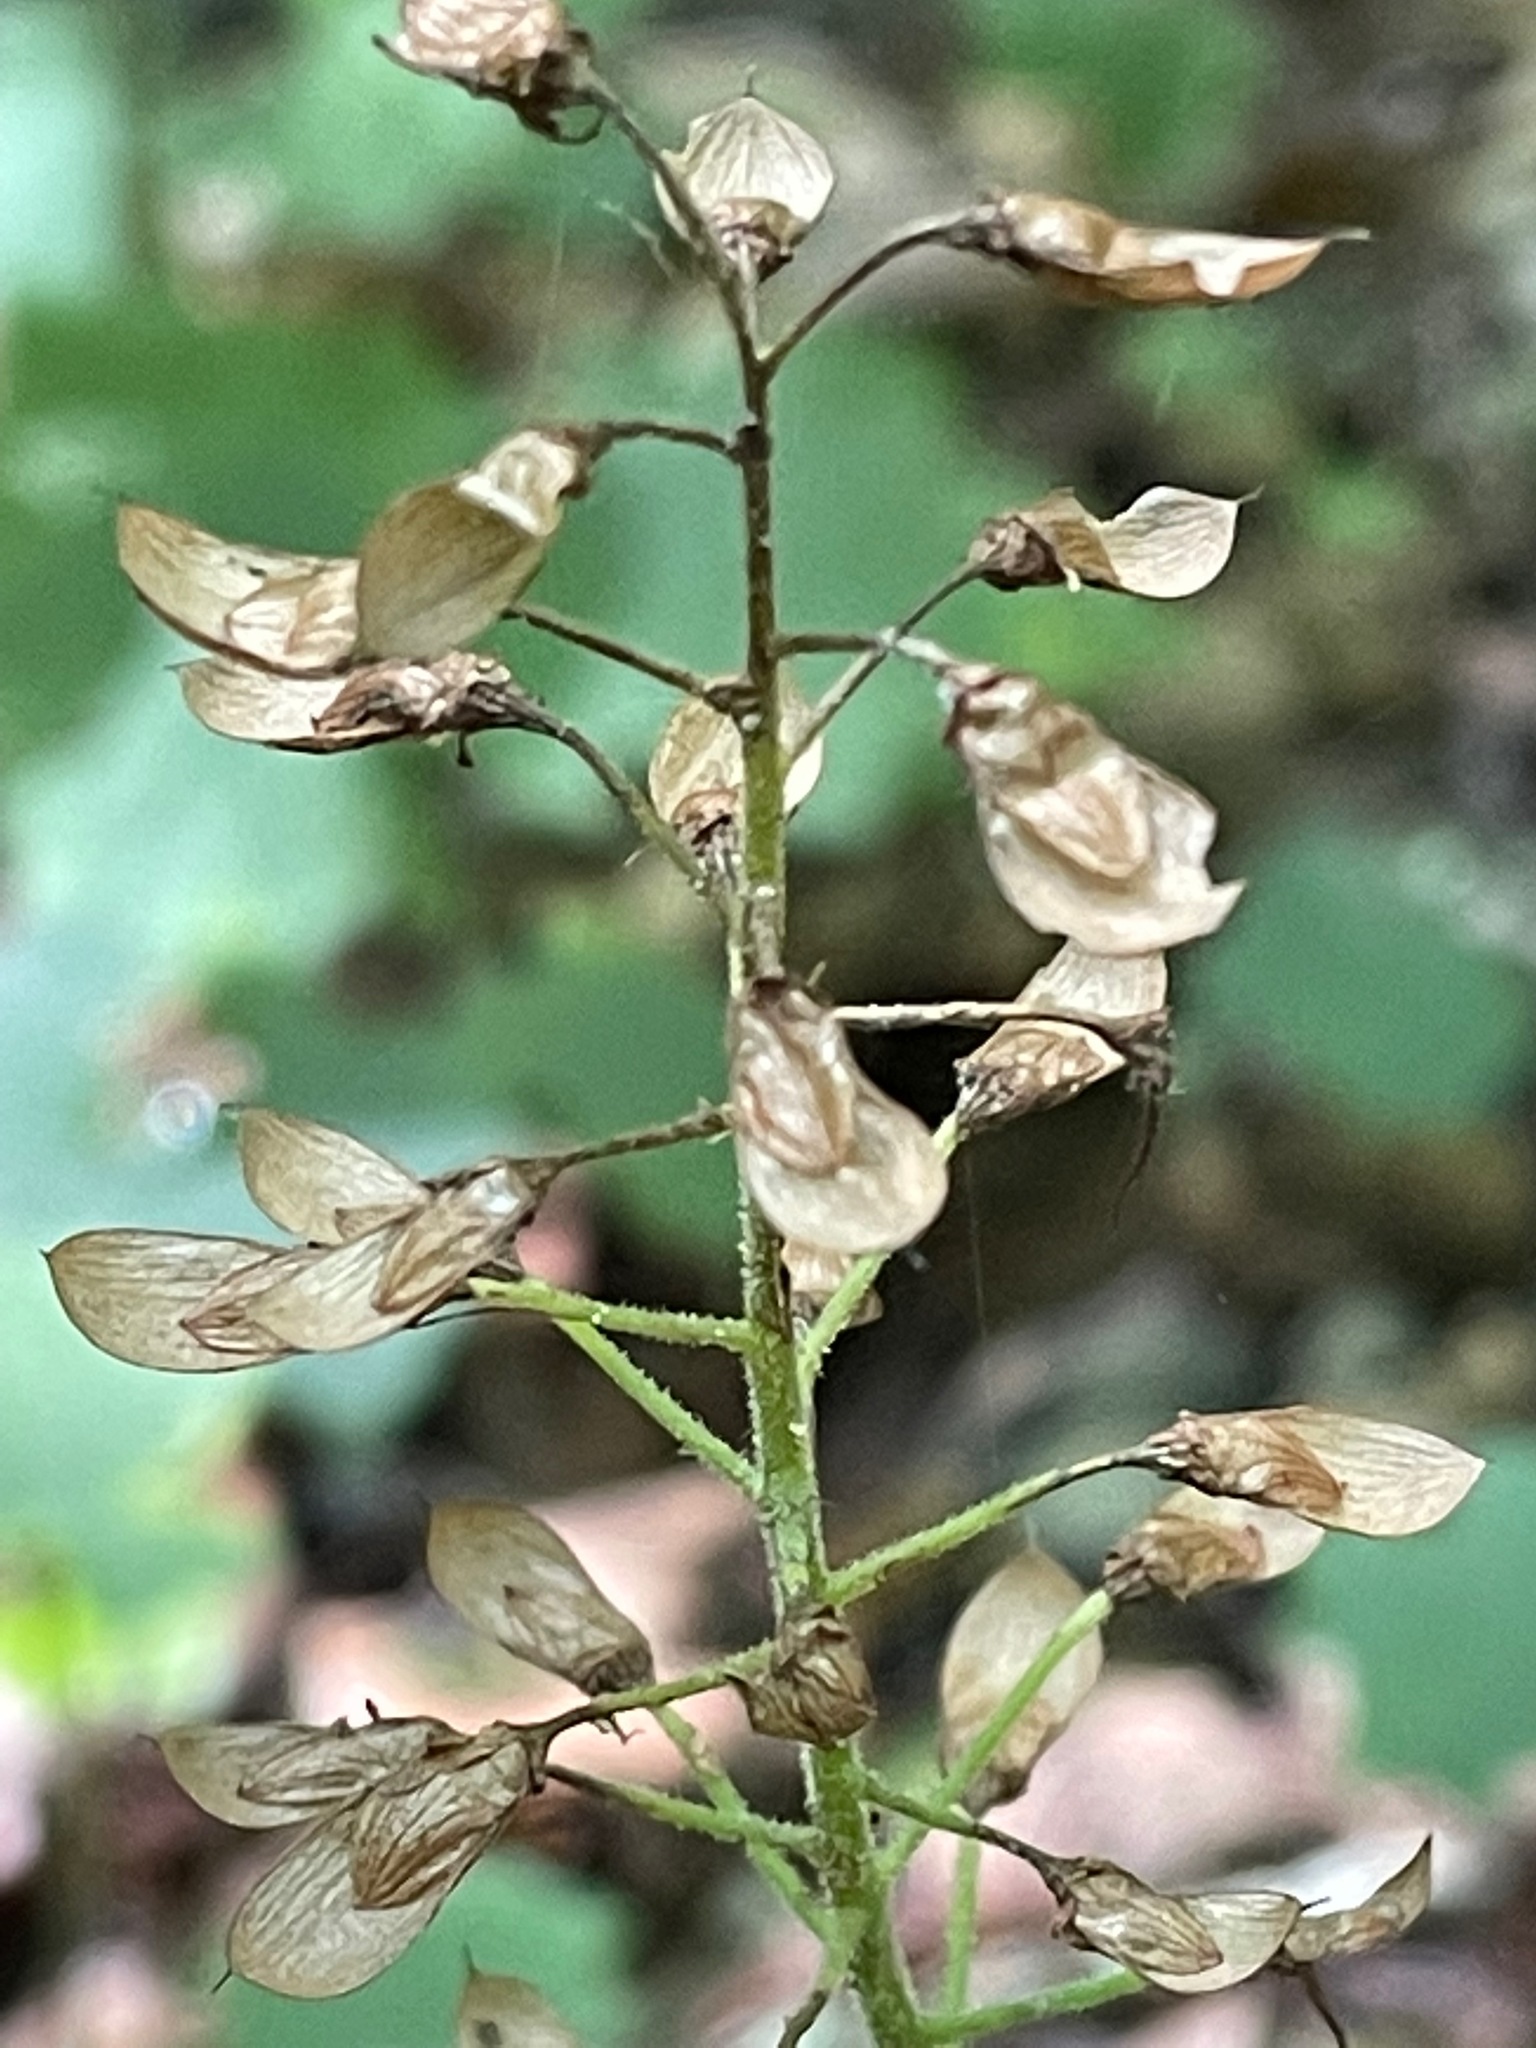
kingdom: Plantae
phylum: Tracheophyta
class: Magnoliopsida
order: Saxifragales
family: Saxifragaceae
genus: Tiarella
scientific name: Tiarella stolonifera
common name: Stoloniferous foamflower
